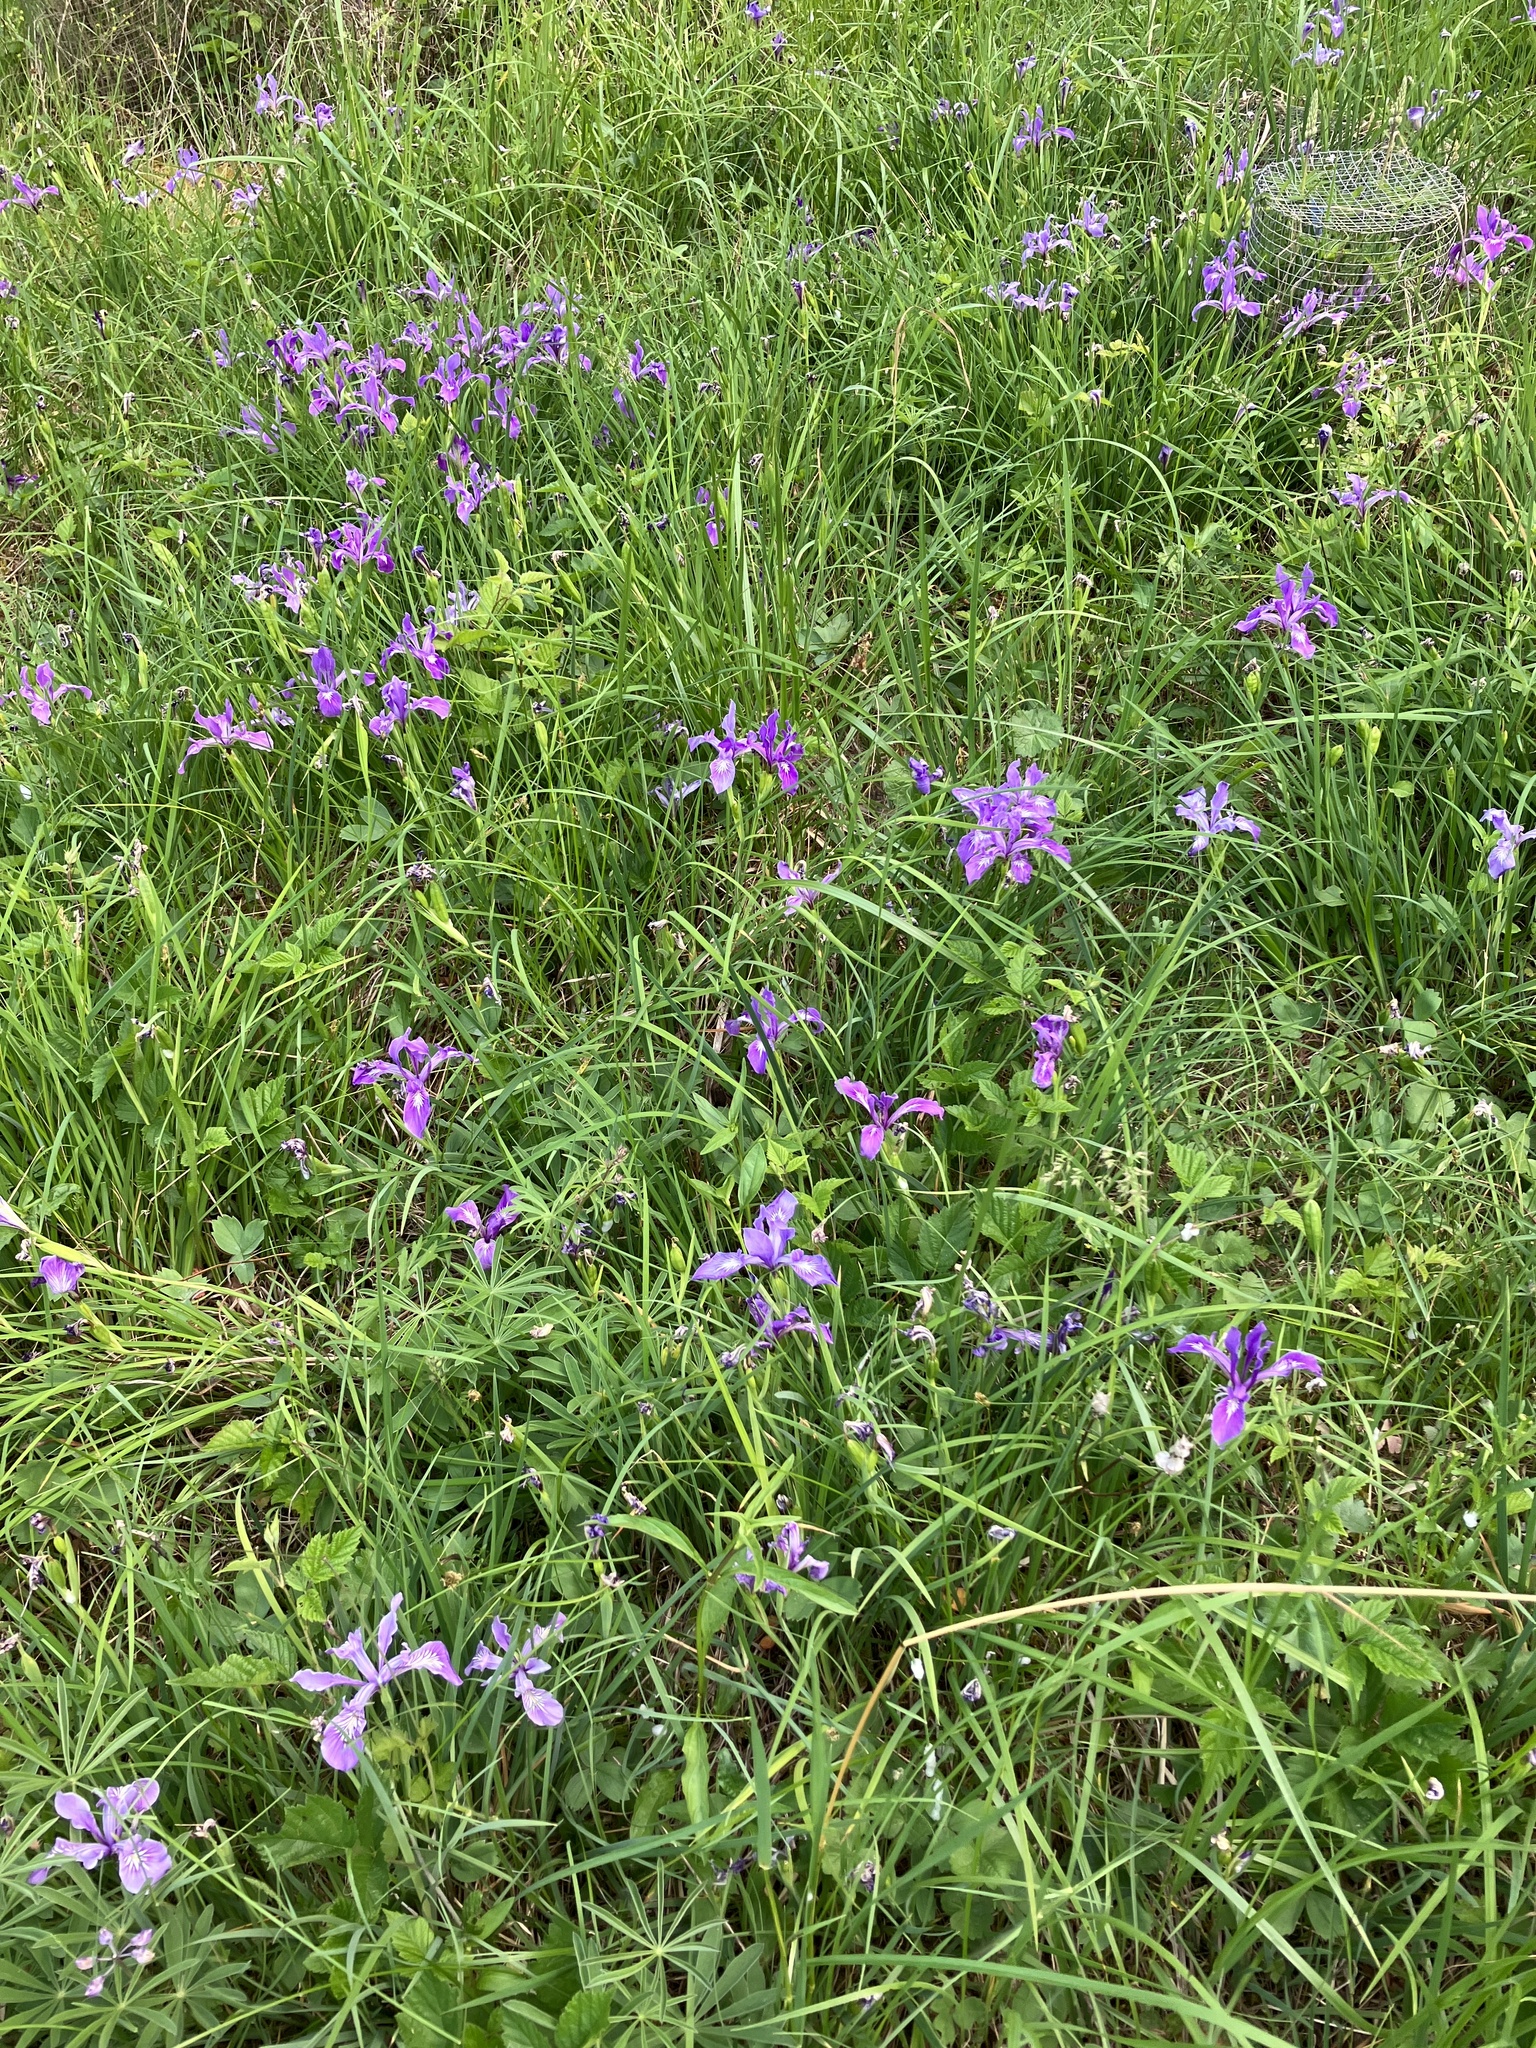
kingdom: Plantae
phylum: Tracheophyta
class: Liliopsida
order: Asparagales
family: Iridaceae
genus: Iris
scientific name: Iris tenax
